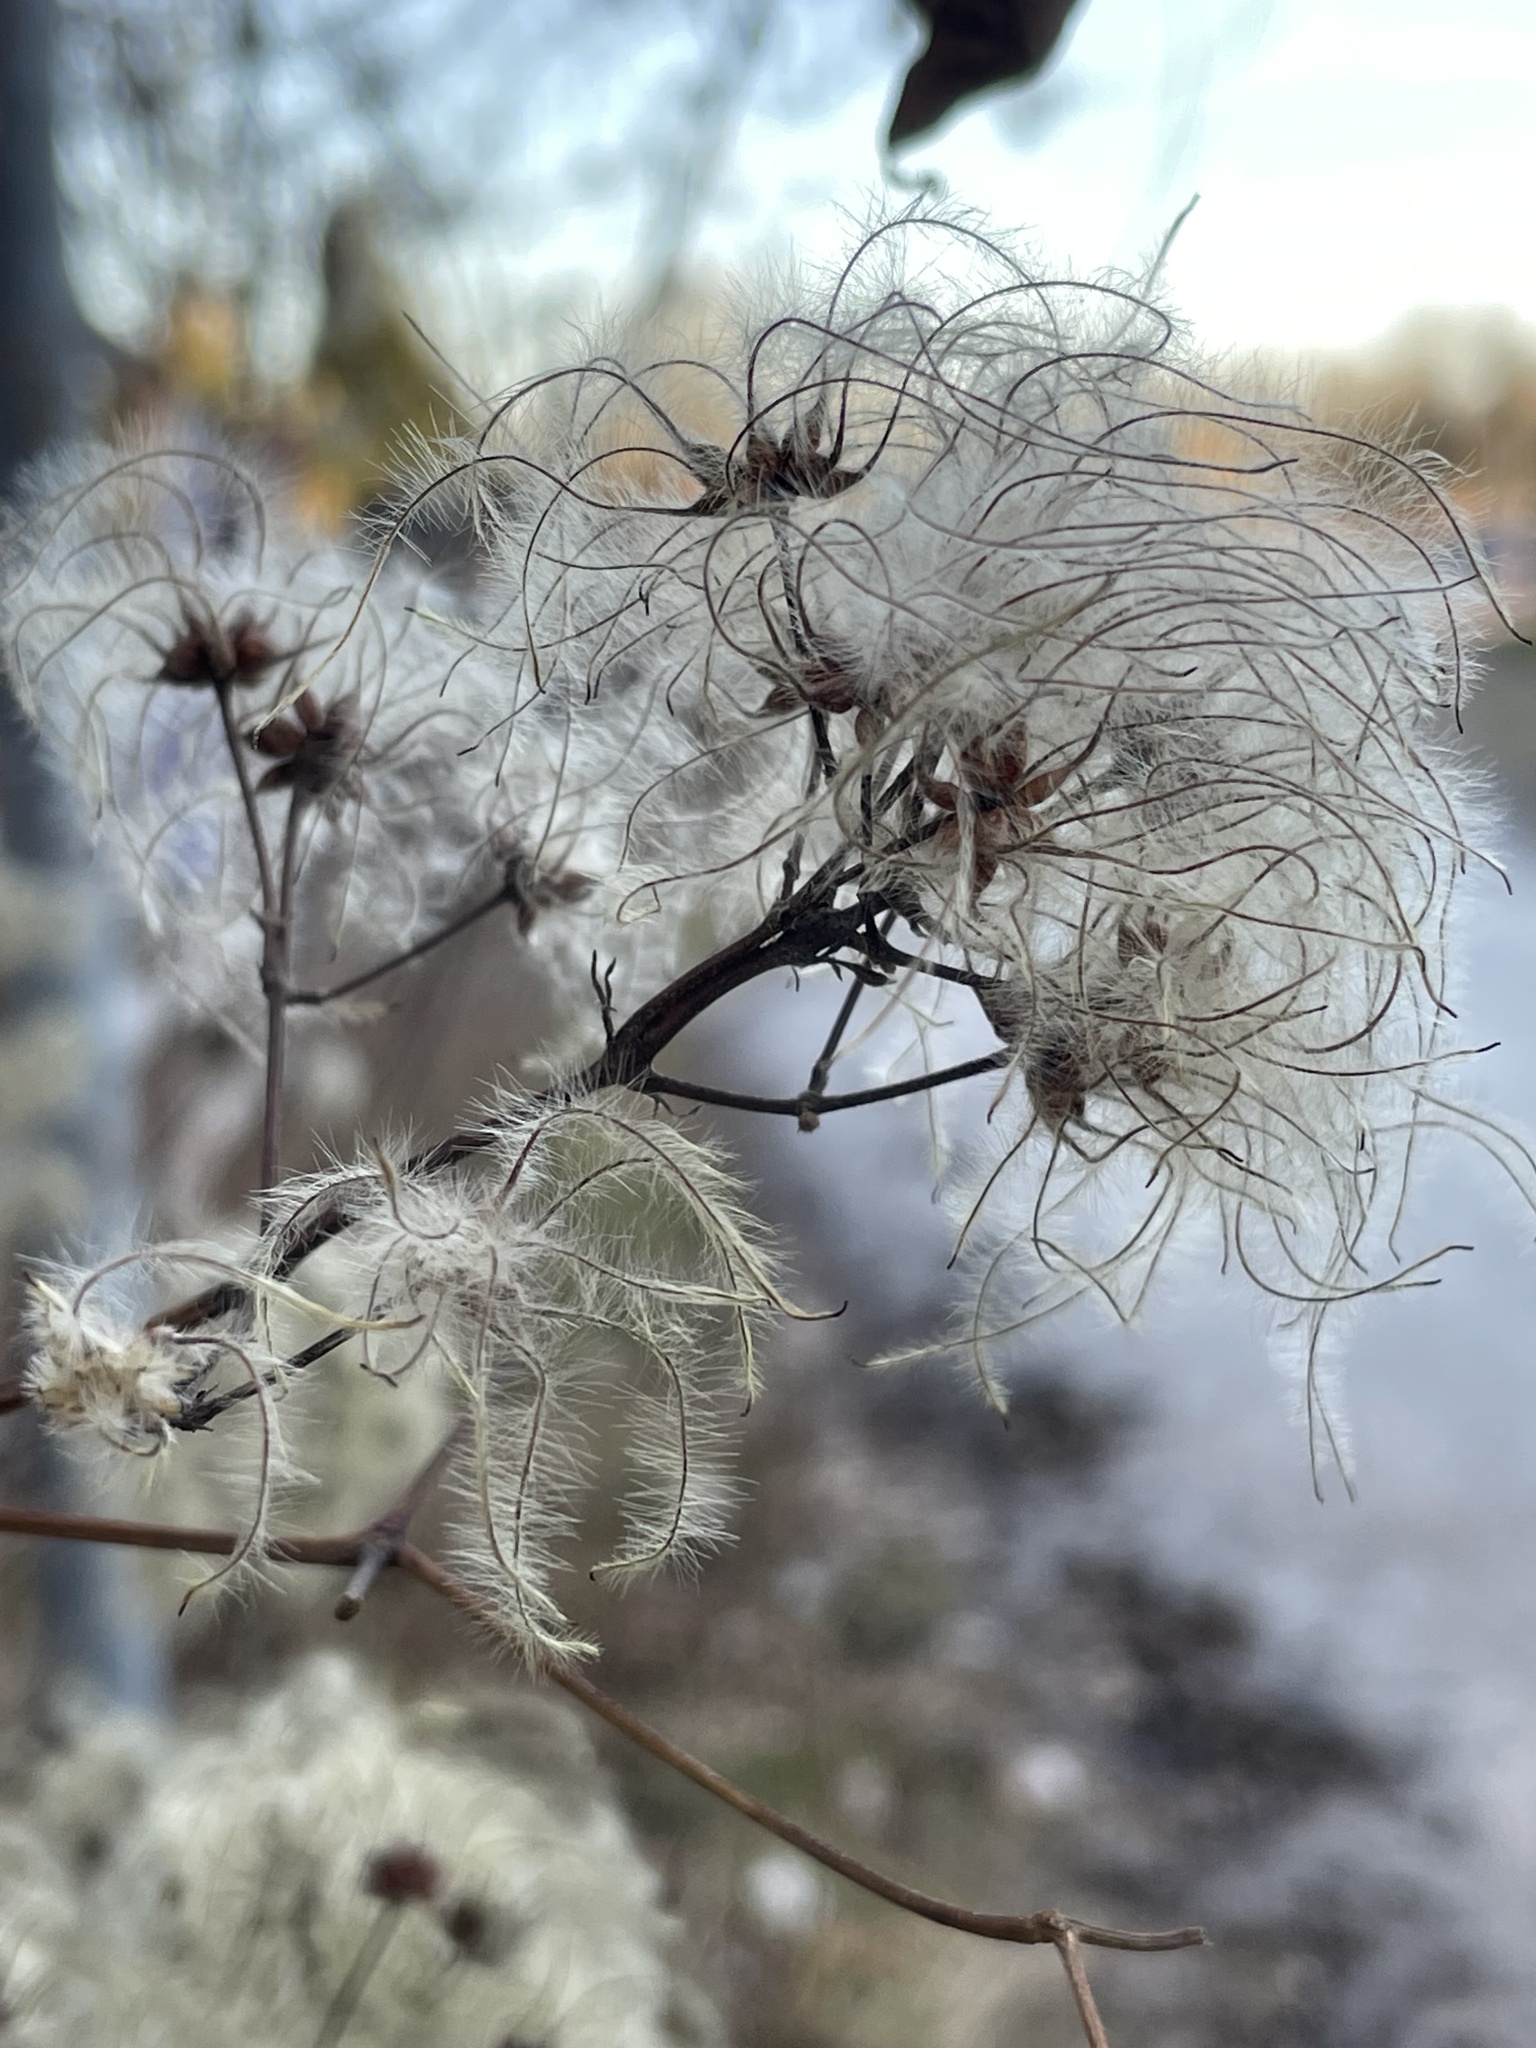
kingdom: Plantae
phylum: Tracheophyta
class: Magnoliopsida
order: Ranunculales
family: Ranunculaceae
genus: Clematis
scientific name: Clematis vitalba
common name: Evergreen clematis
